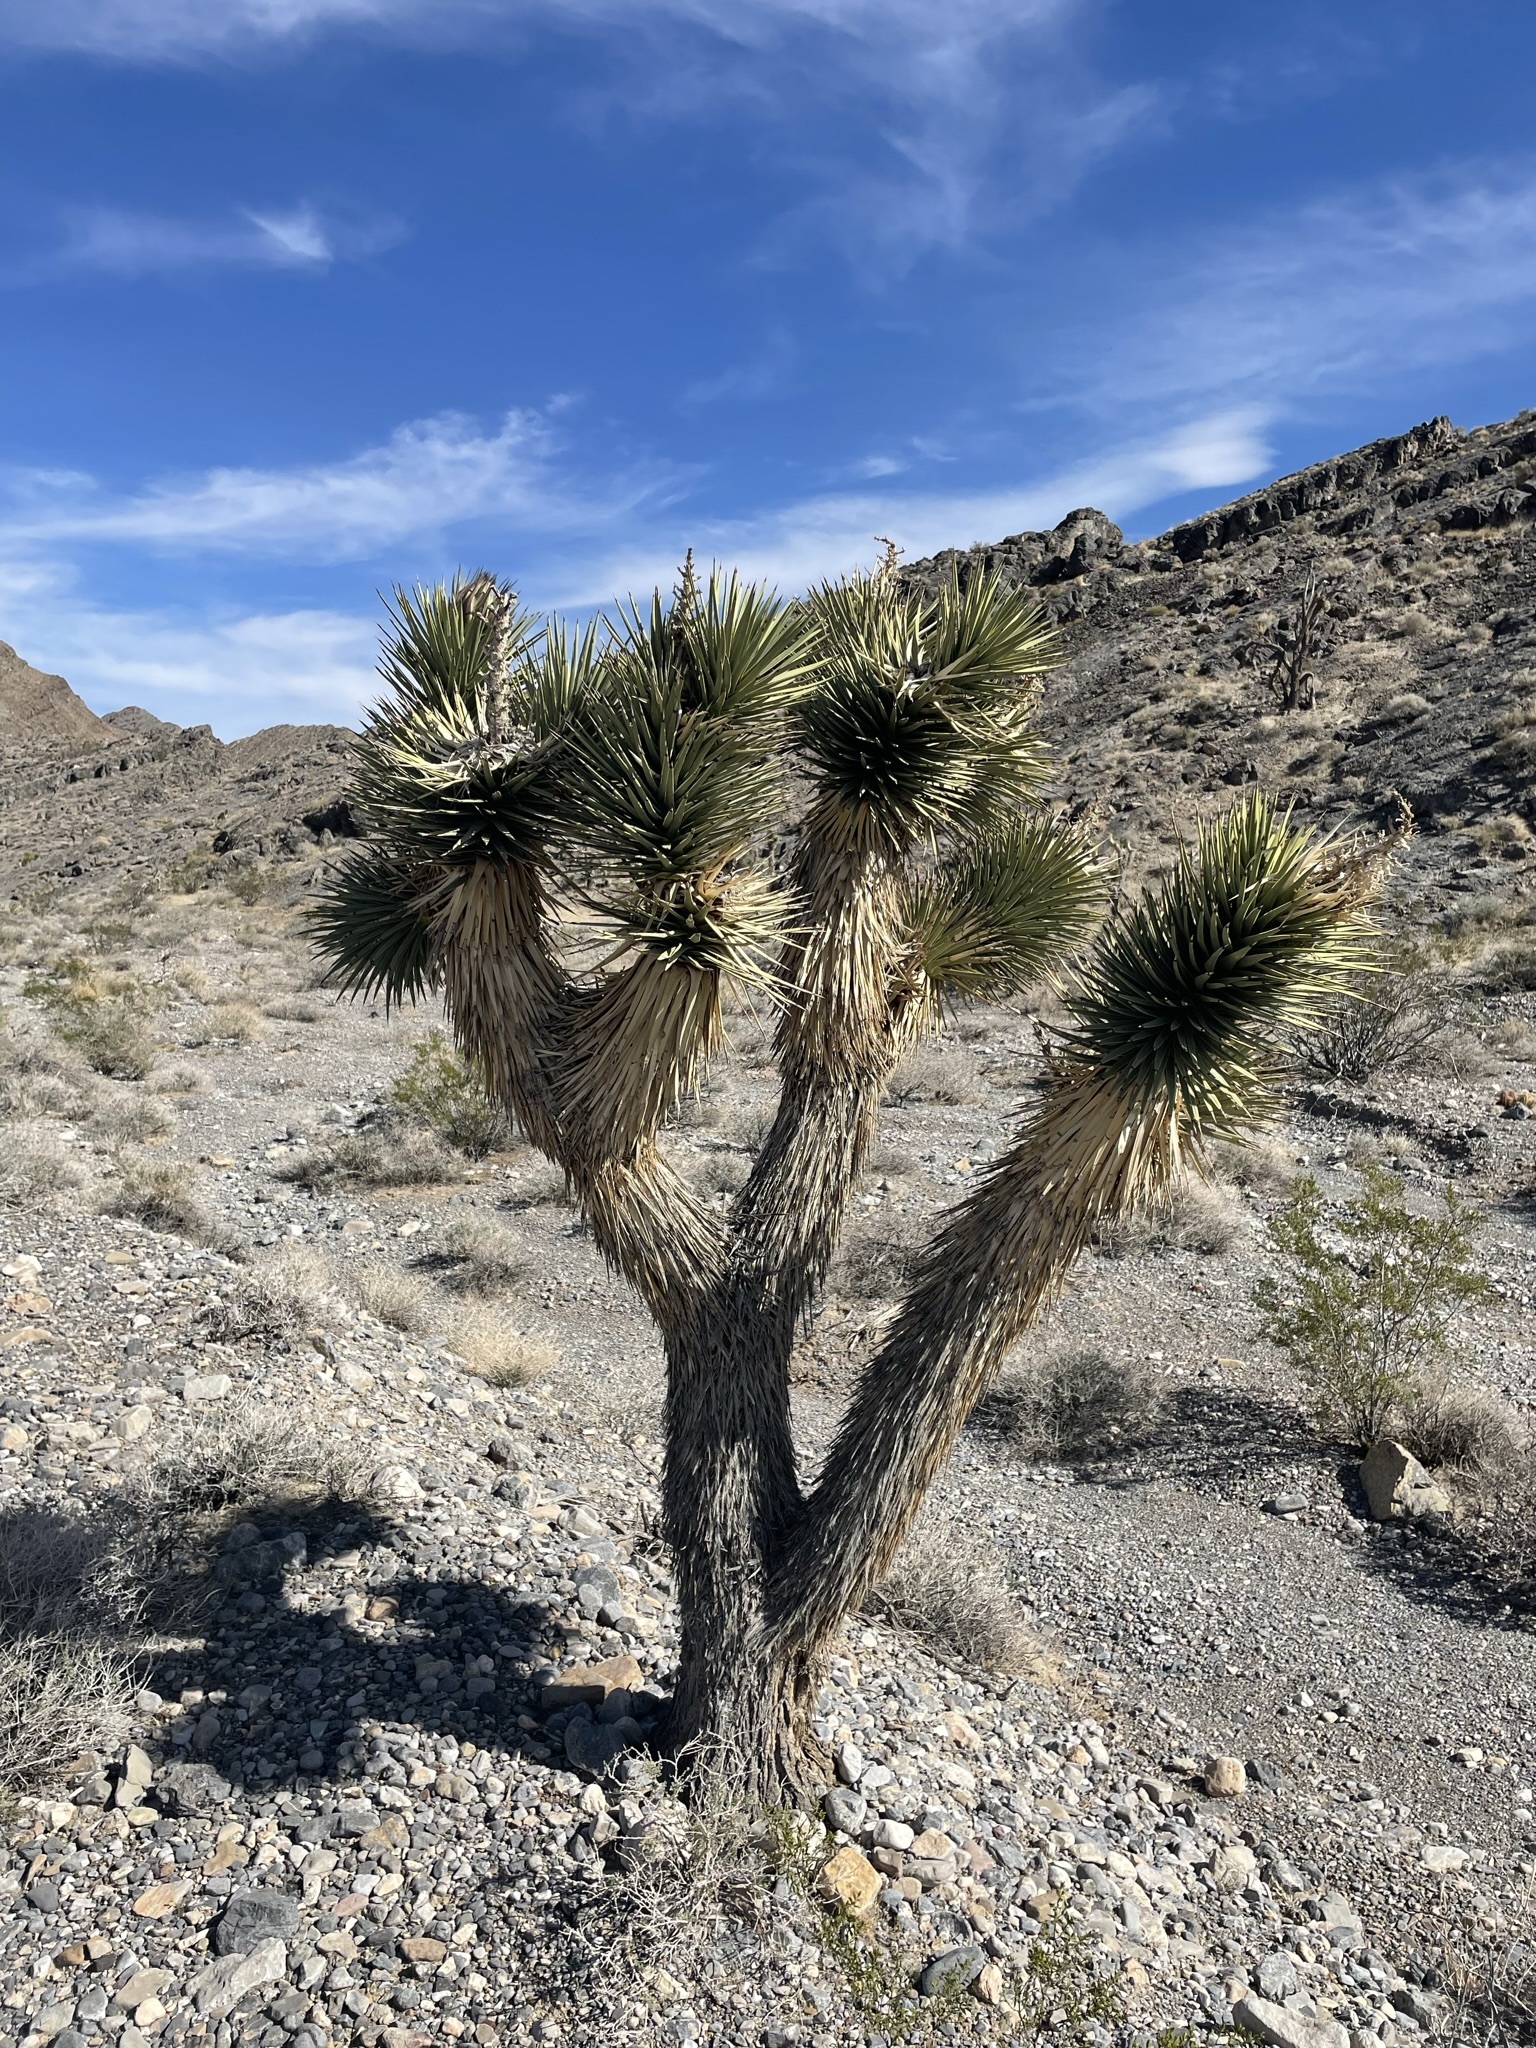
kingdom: Plantae
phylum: Tracheophyta
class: Liliopsida
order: Asparagales
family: Asparagaceae
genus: Yucca
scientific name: Yucca brevifolia
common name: Joshua tree
